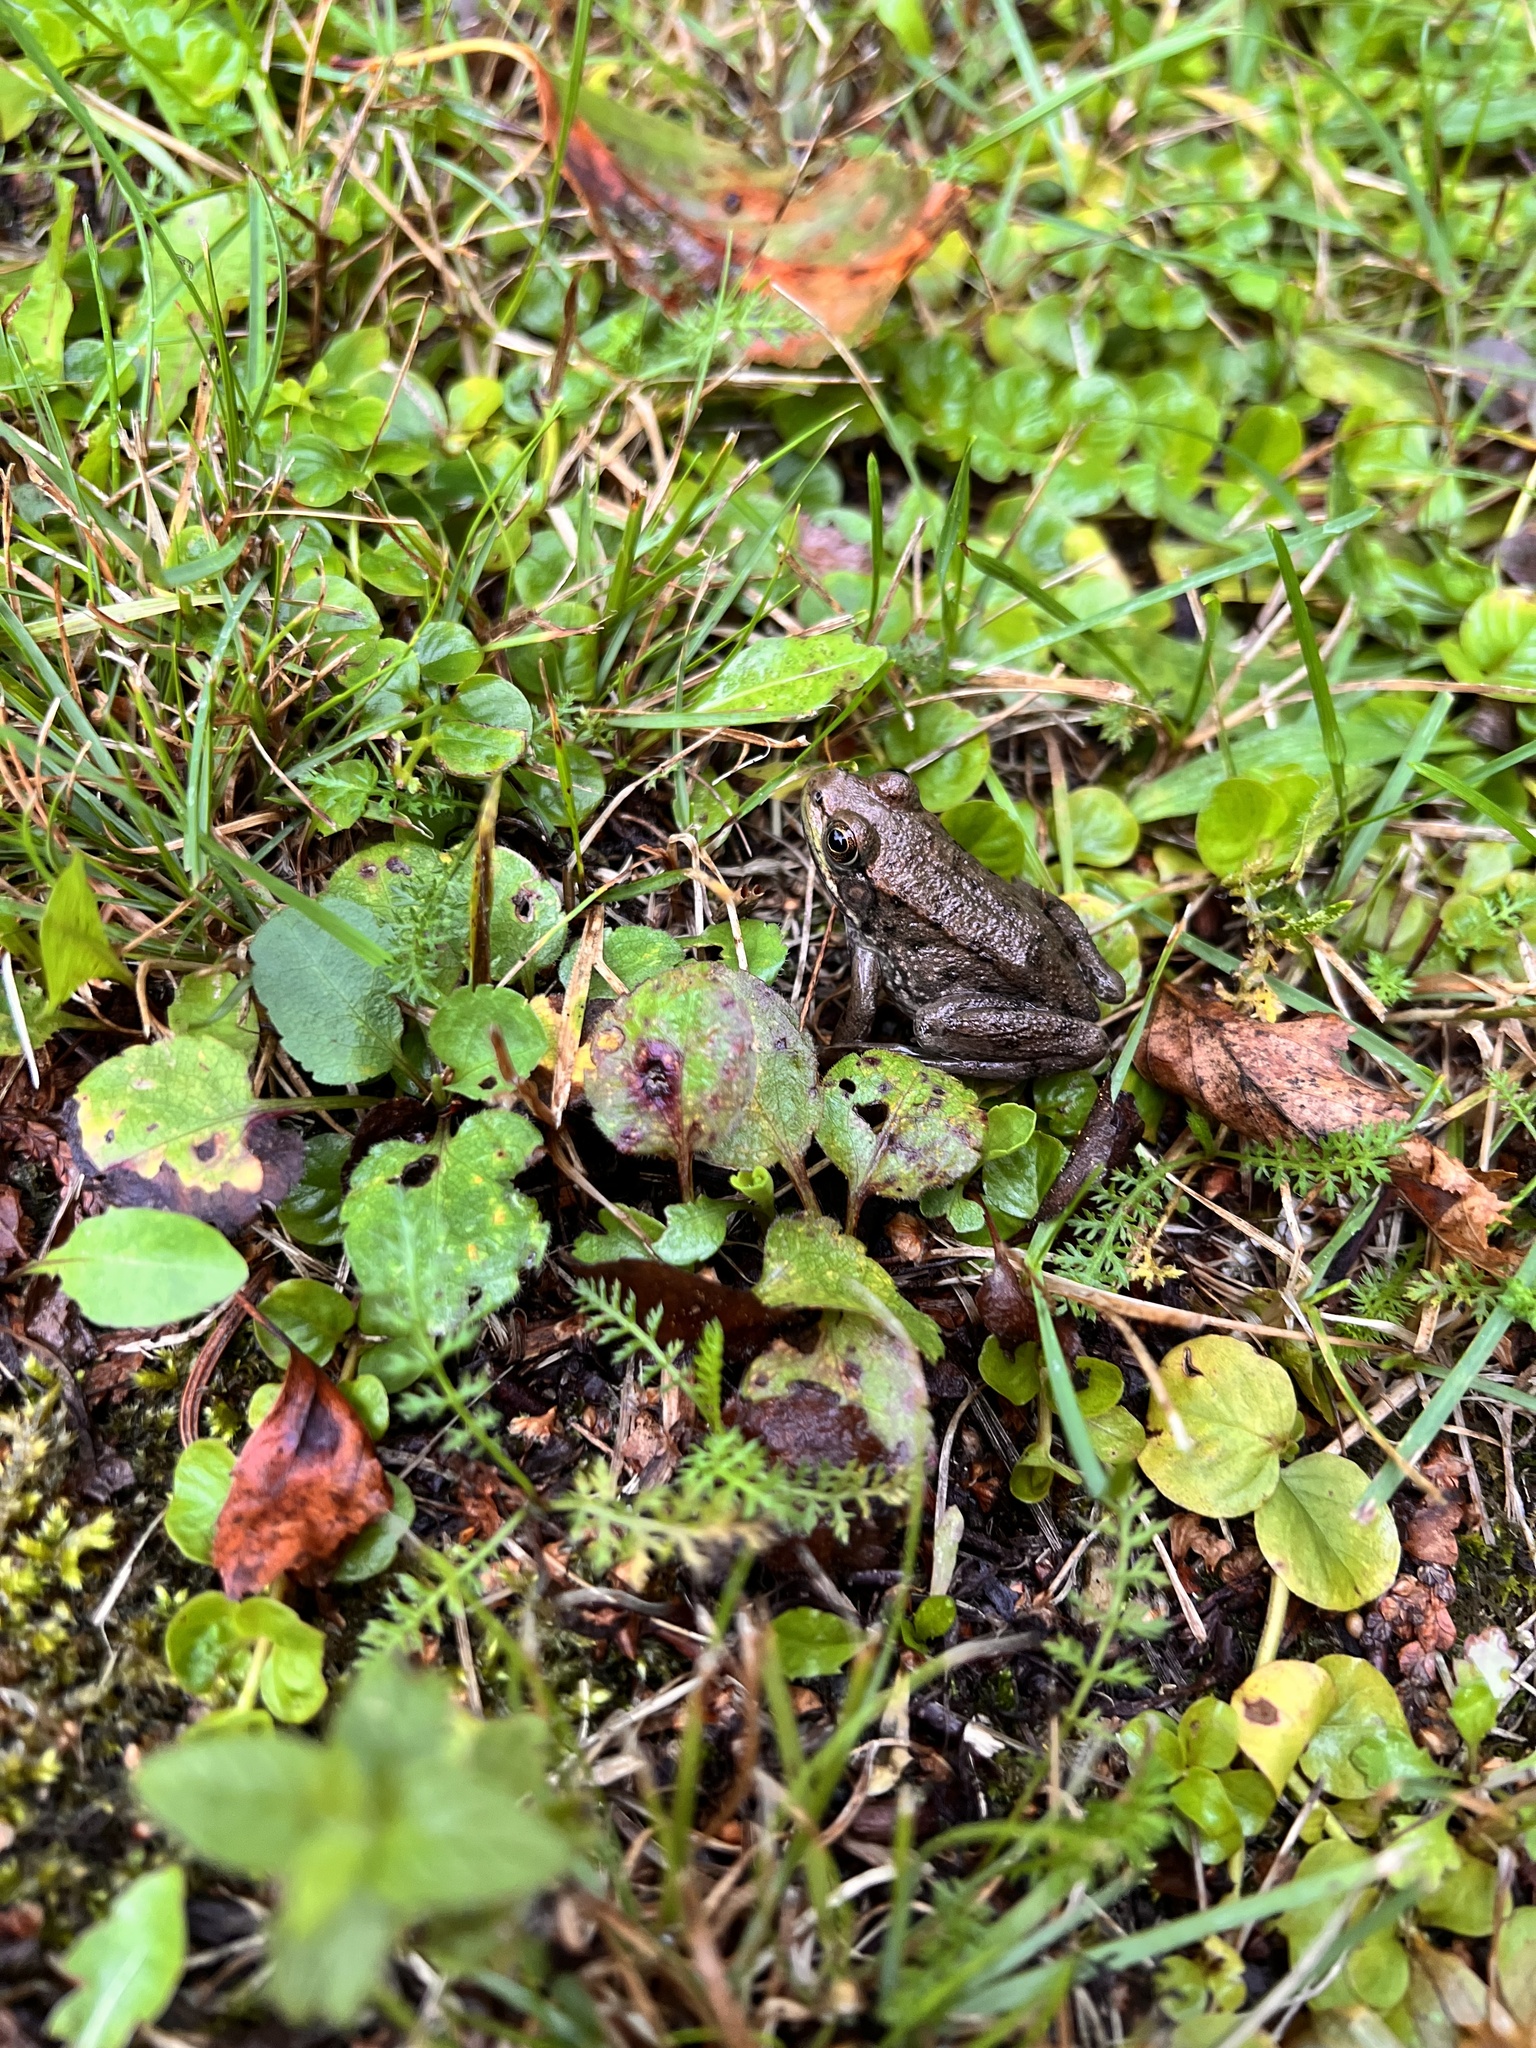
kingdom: Animalia
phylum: Chordata
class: Amphibia
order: Anura
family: Ranidae
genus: Lithobates
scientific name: Lithobates clamitans
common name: Green frog
